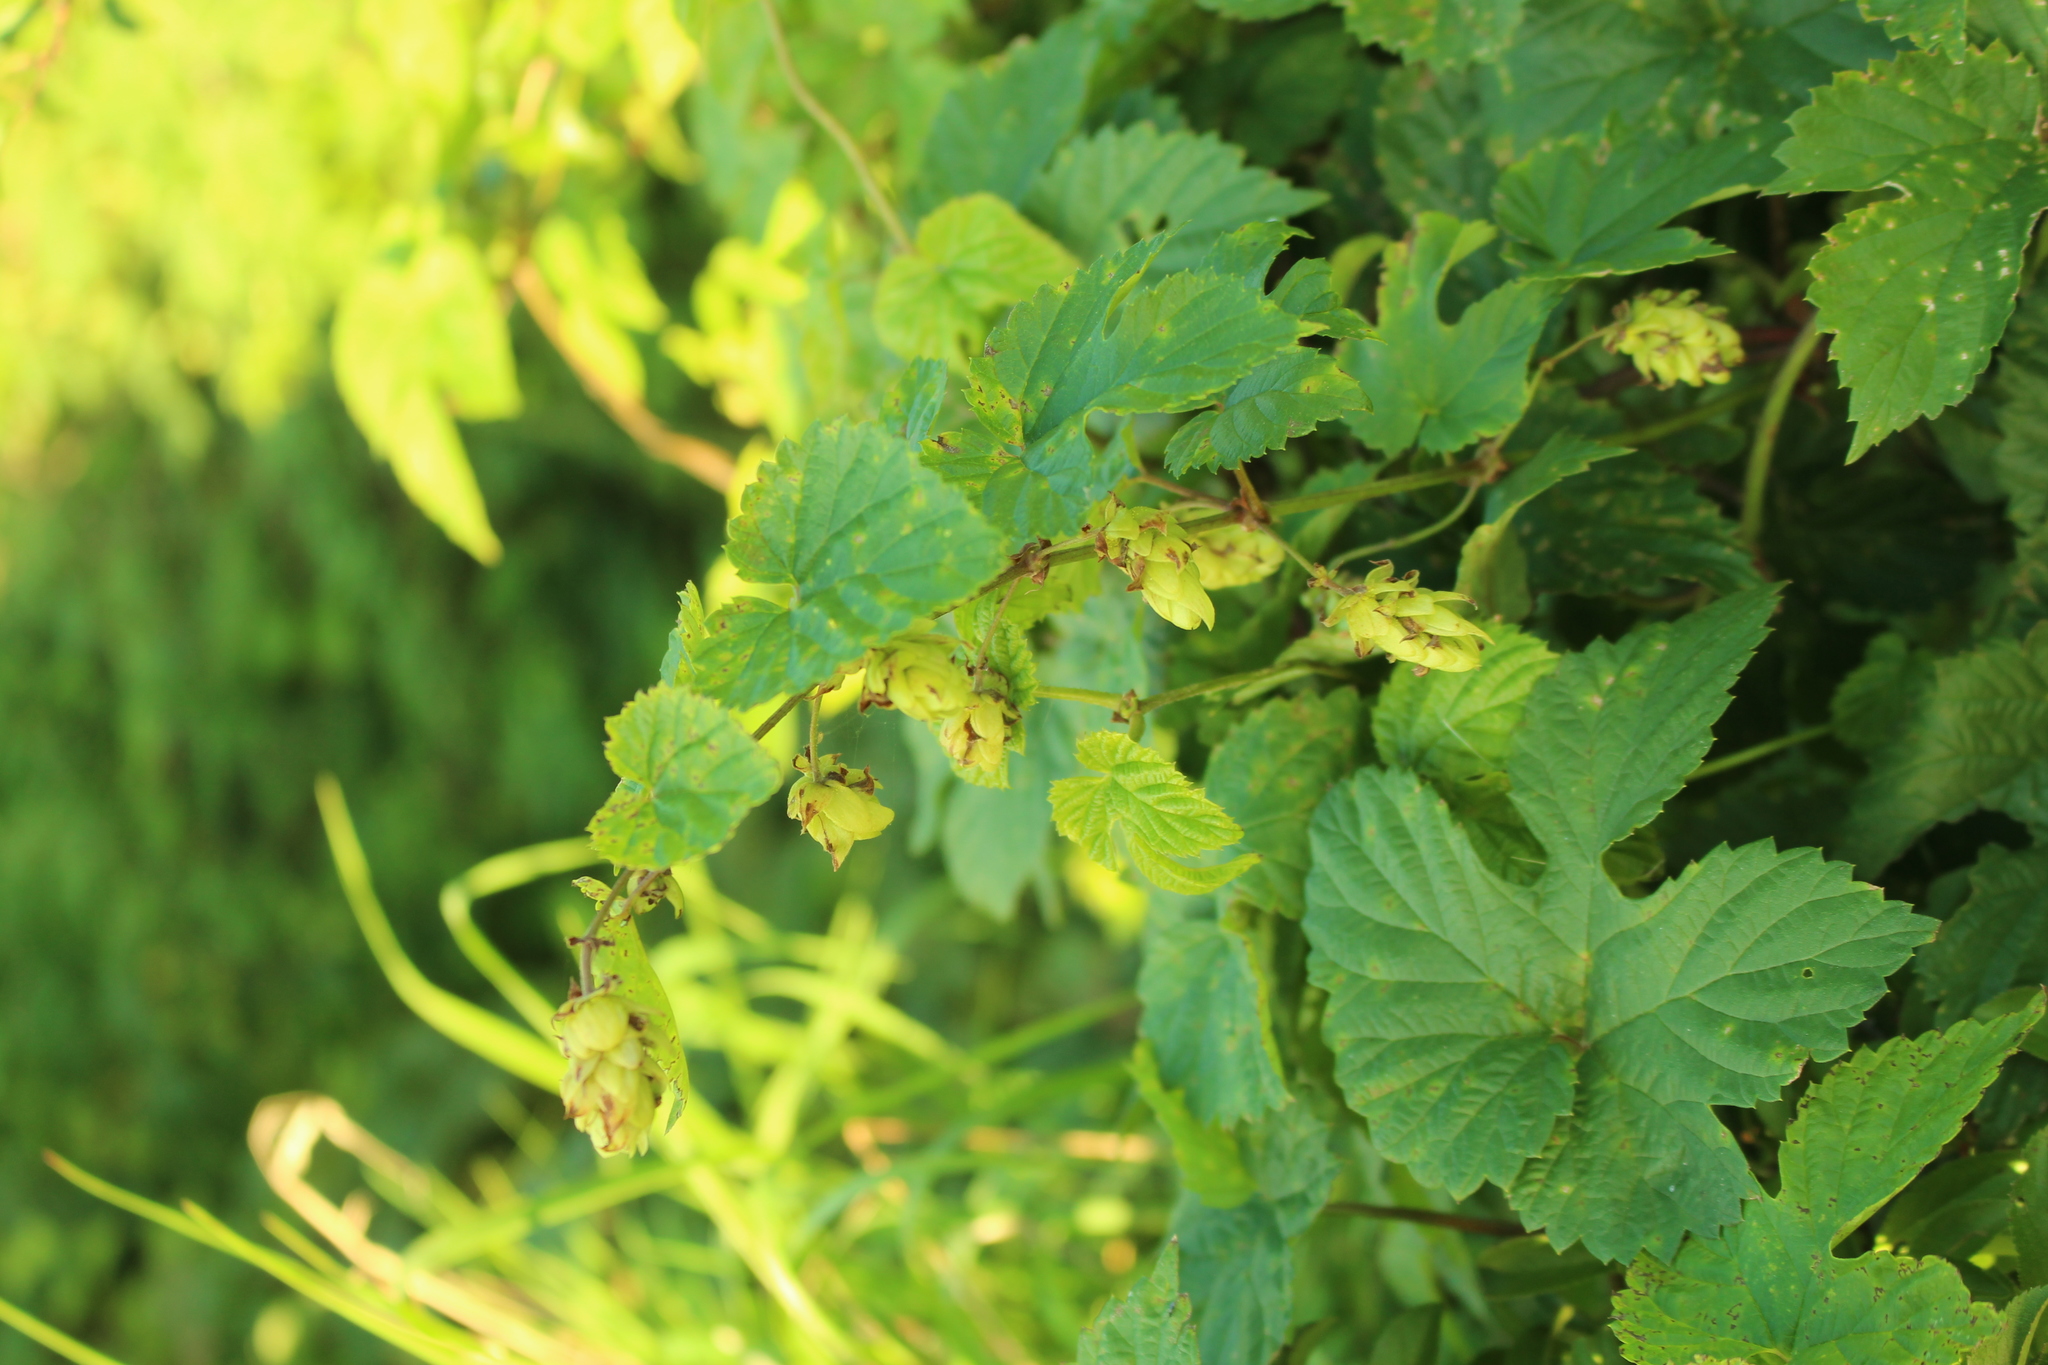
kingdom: Plantae
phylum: Tracheophyta
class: Magnoliopsida
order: Rosales
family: Cannabaceae
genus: Humulus
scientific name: Humulus lupulus
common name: Hop
